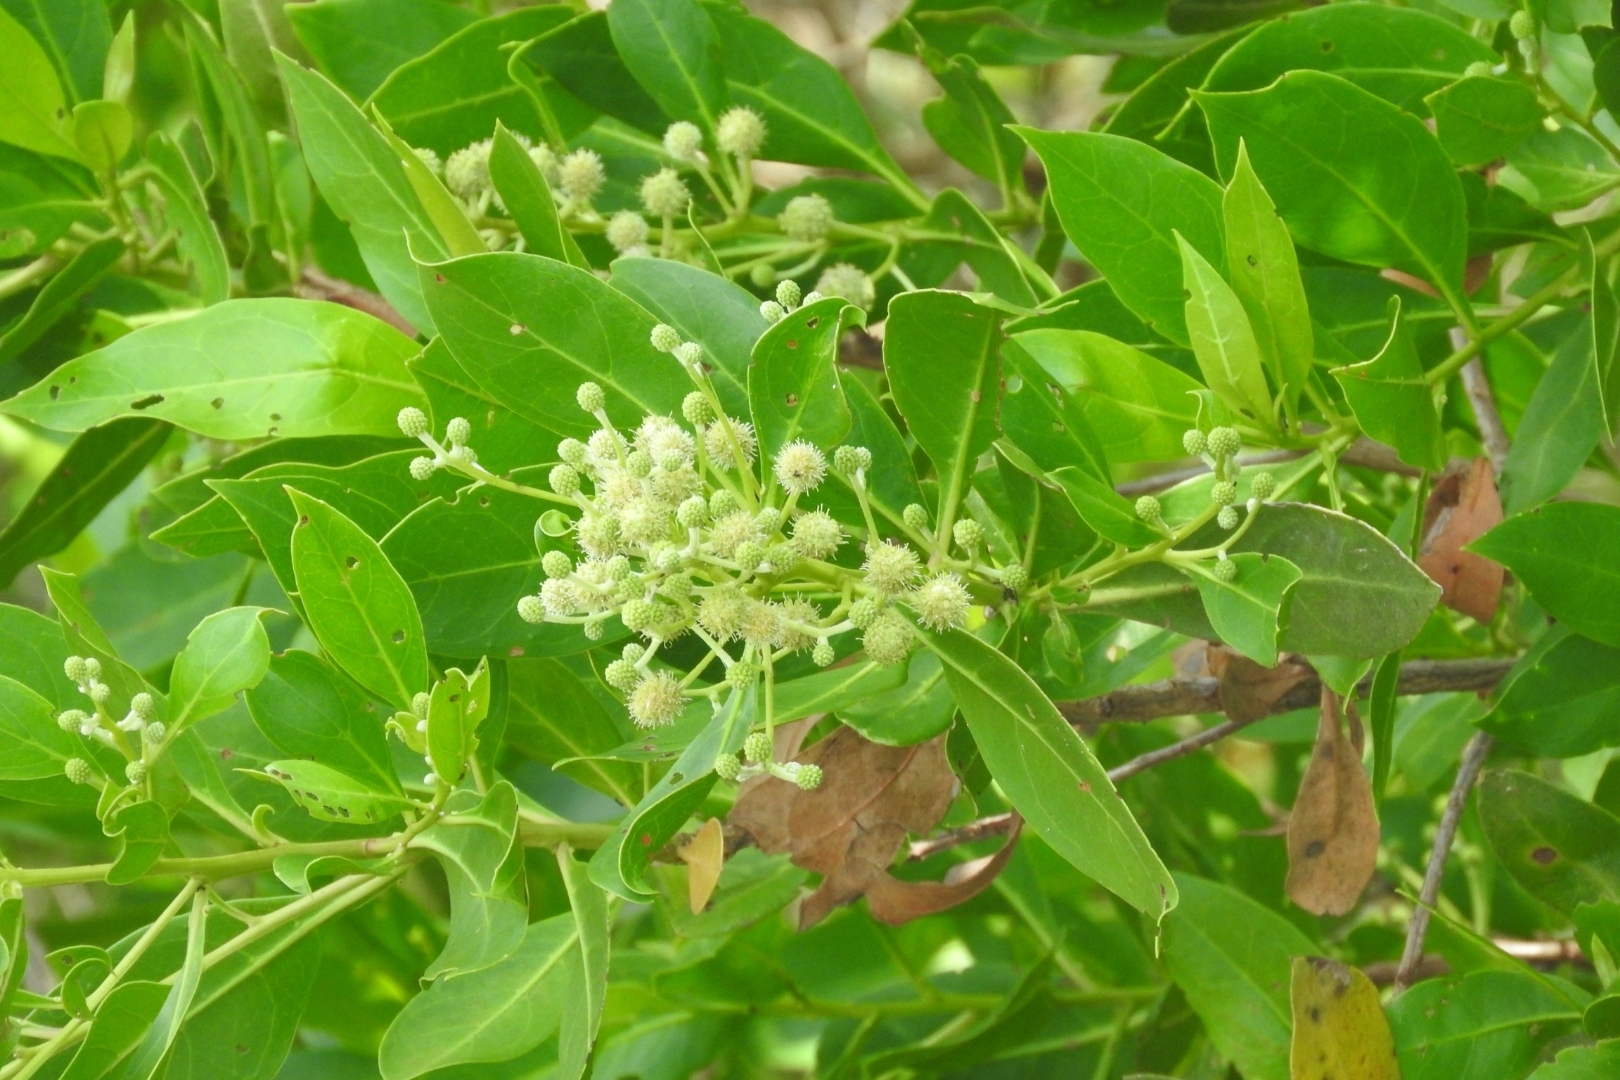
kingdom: Plantae
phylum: Tracheophyta
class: Magnoliopsida
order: Myrtales
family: Combretaceae
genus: Conocarpus
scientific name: Conocarpus erectus
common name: Button mangrove
